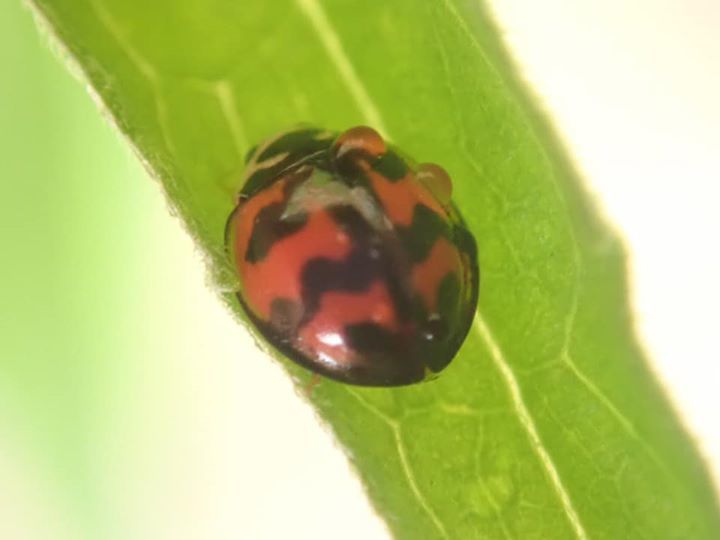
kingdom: Animalia
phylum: Arthropoda
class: Insecta
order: Coleoptera
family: Coccinellidae
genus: Cheilomenes
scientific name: Cheilomenes sexmaculata
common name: Ladybird beetle
